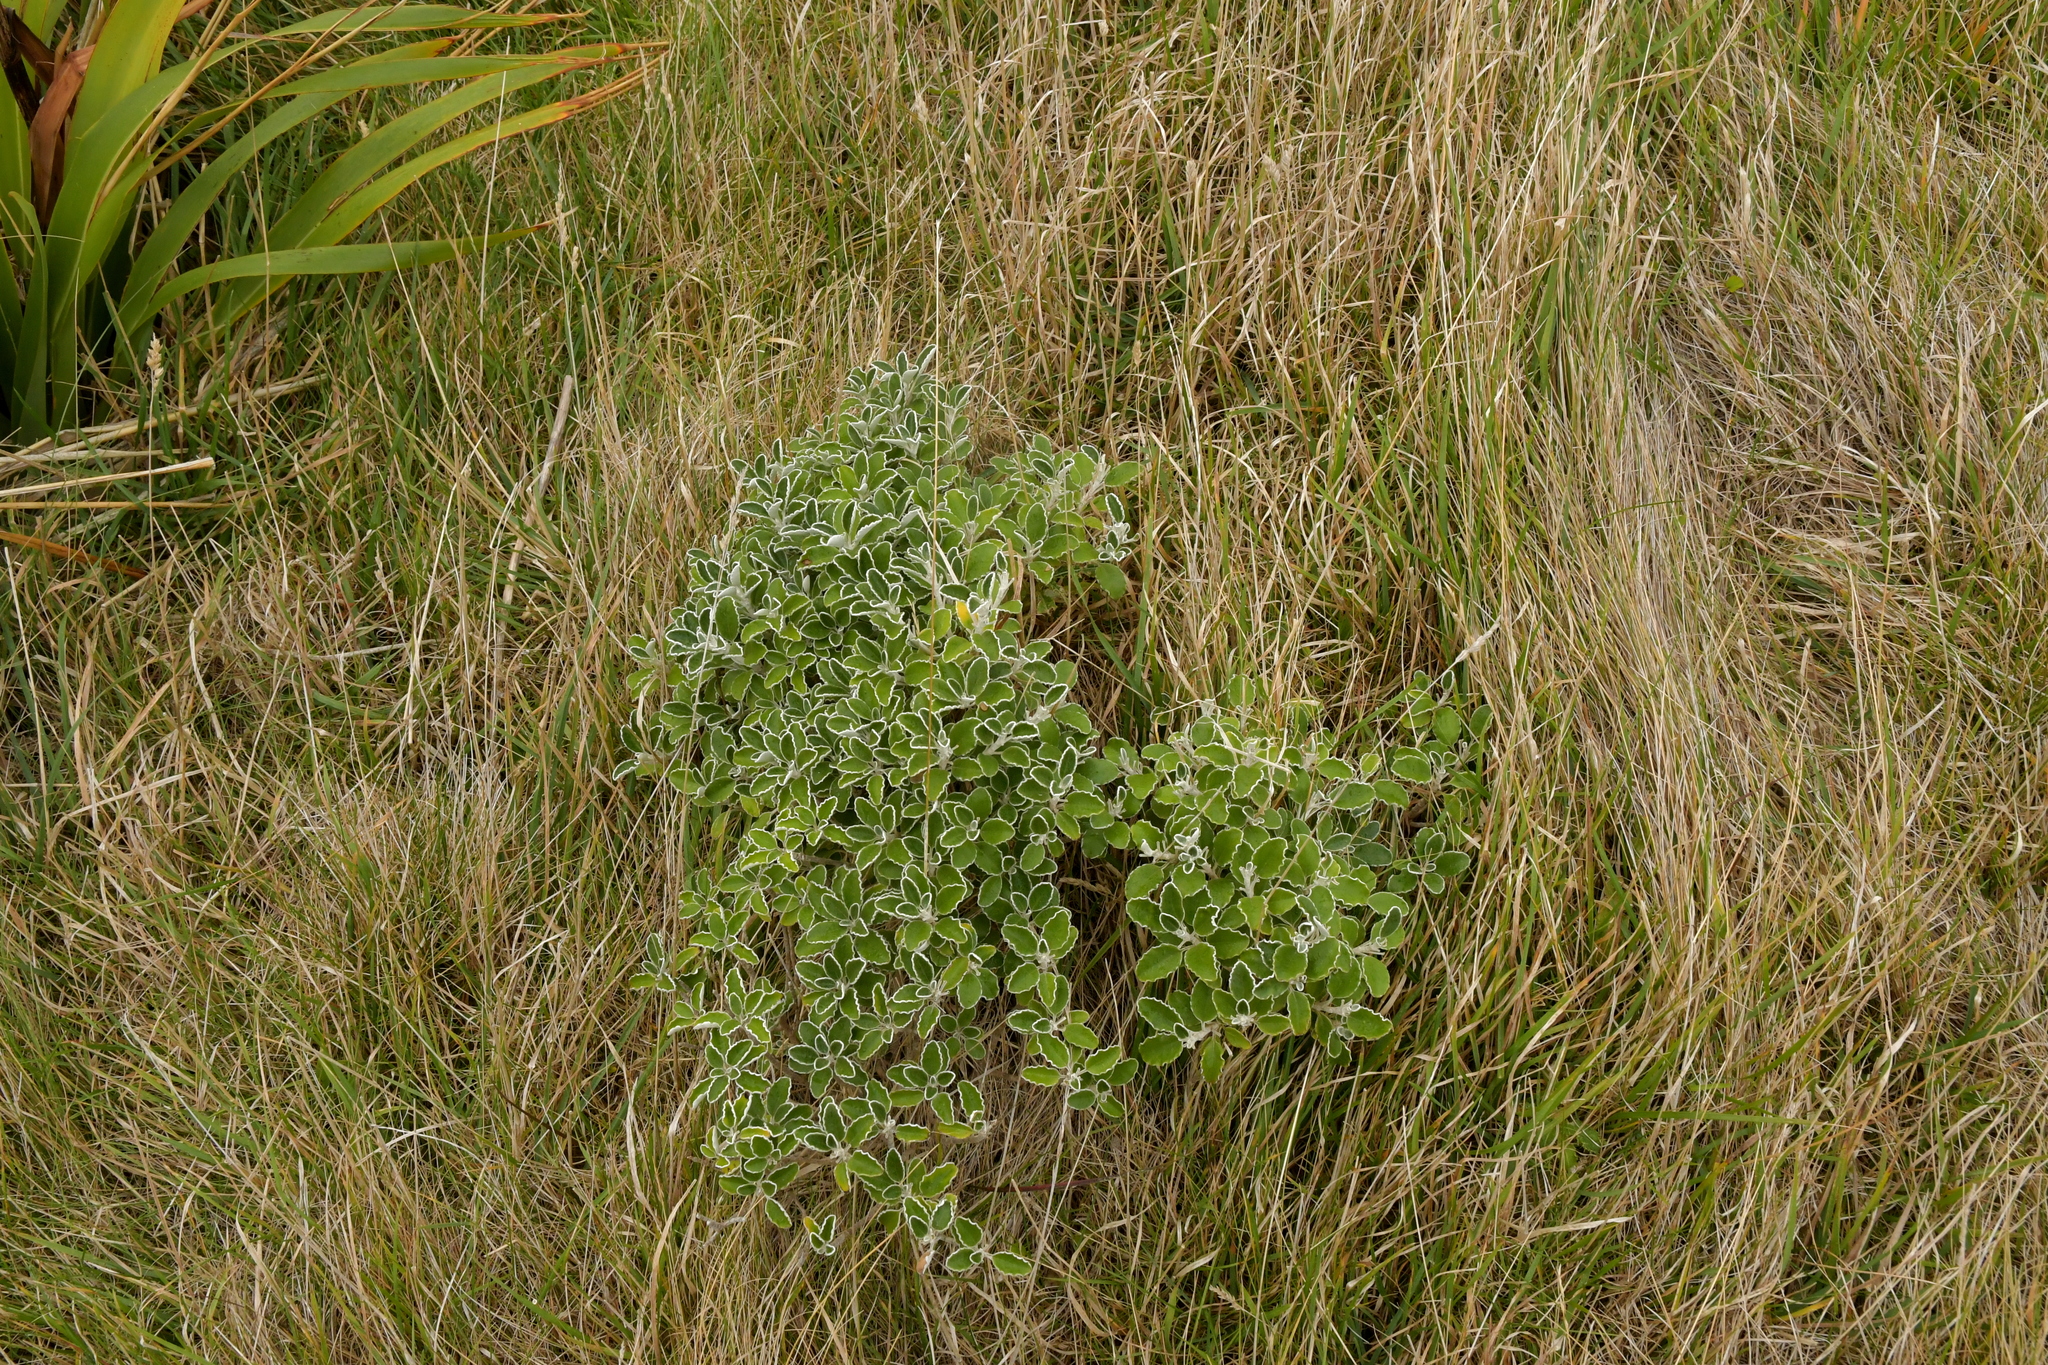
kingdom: Plantae
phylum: Tracheophyta
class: Magnoliopsida
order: Asterales
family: Asteraceae
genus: Brachyglottis
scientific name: Brachyglottis compacta
